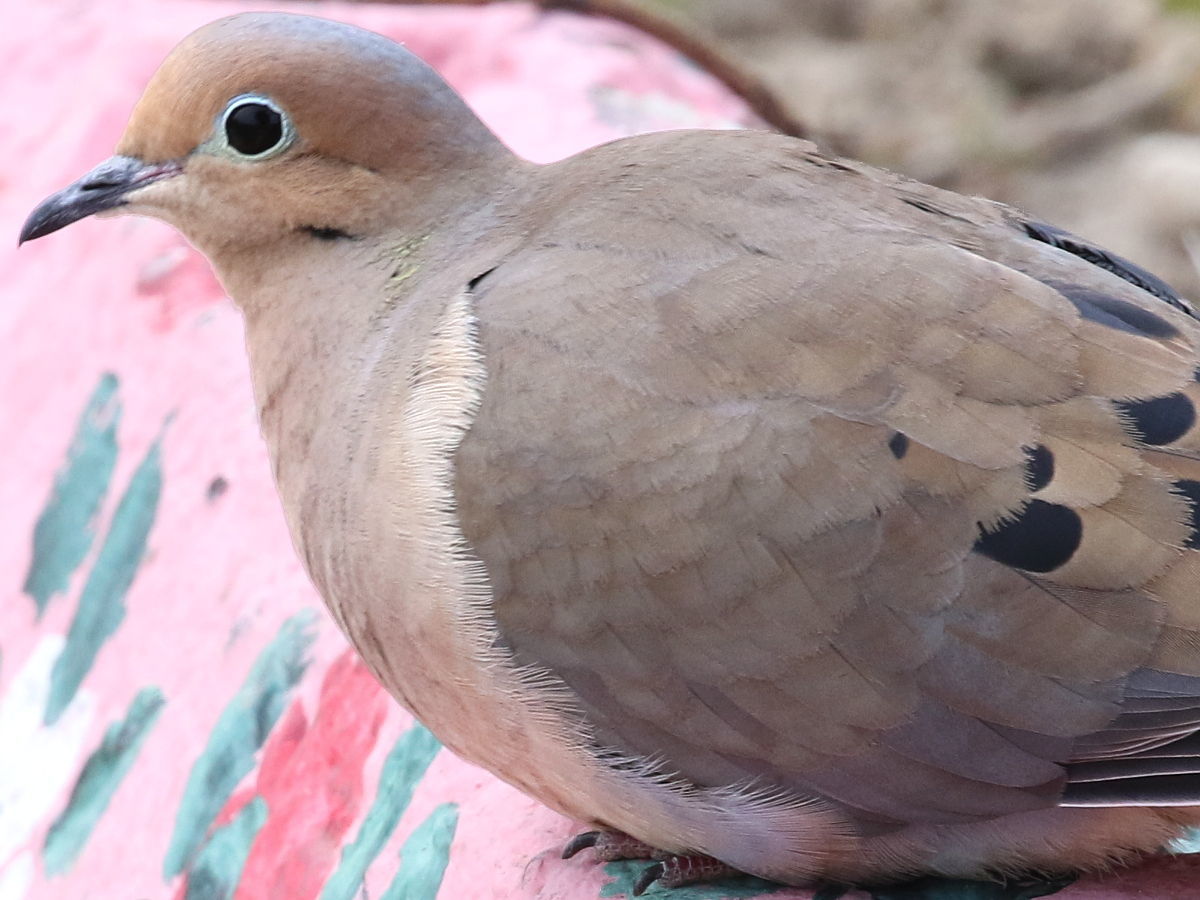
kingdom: Animalia
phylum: Chordata
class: Aves
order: Columbiformes
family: Columbidae
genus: Zenaida
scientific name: Zenaida macroura
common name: Mourning dove
